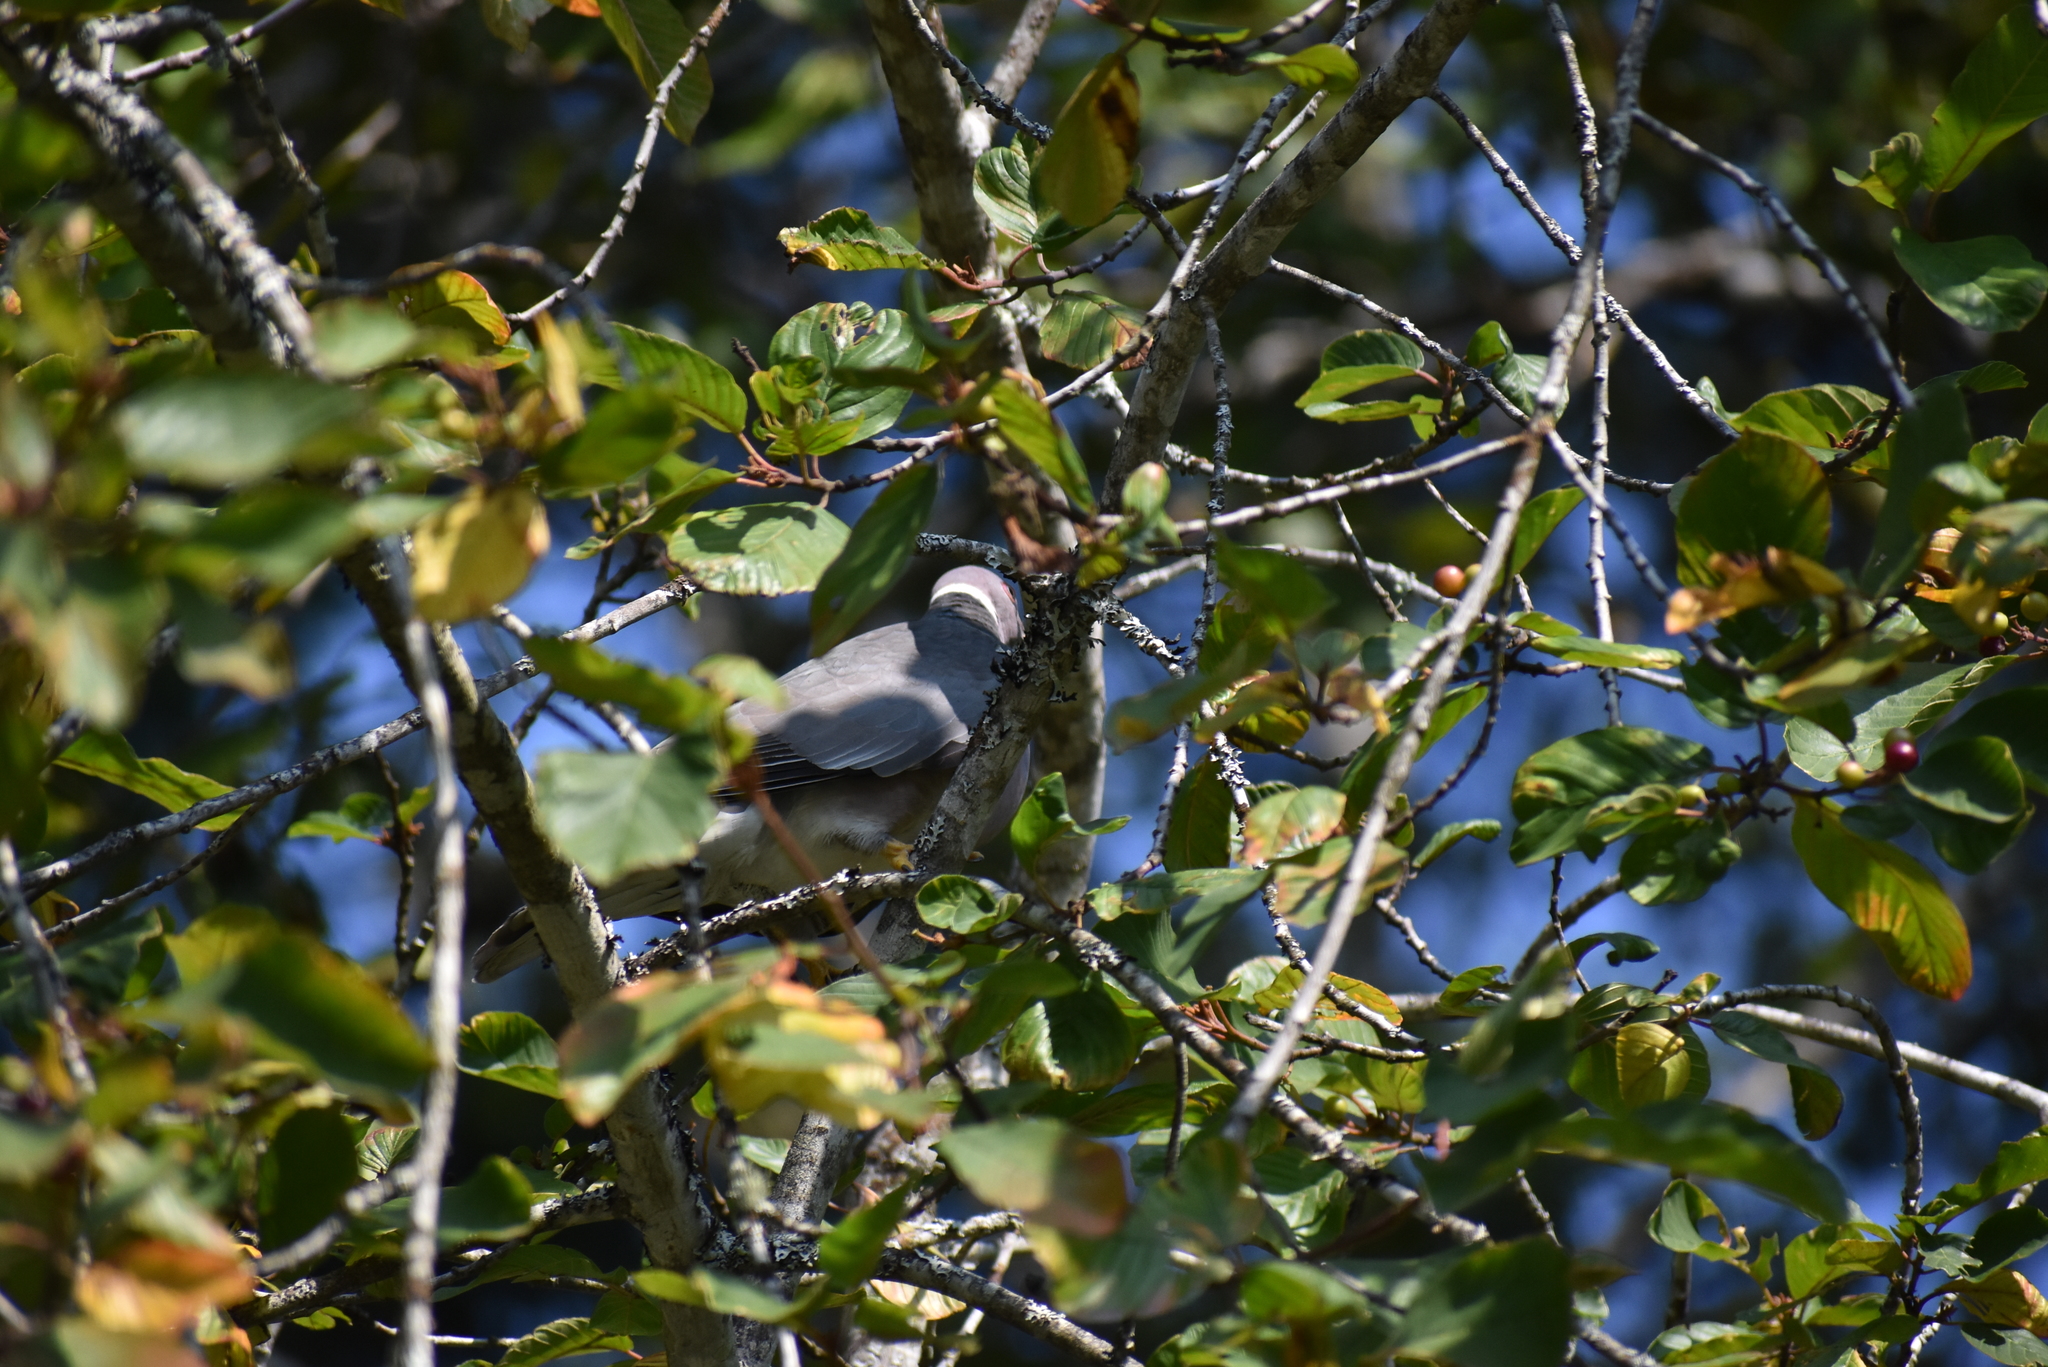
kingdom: Animalia
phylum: Chordata
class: Aves
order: Columbiformes
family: Columbidae
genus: Patagioenas
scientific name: Patagioenas fasciata
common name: Band-tailed pigeon
